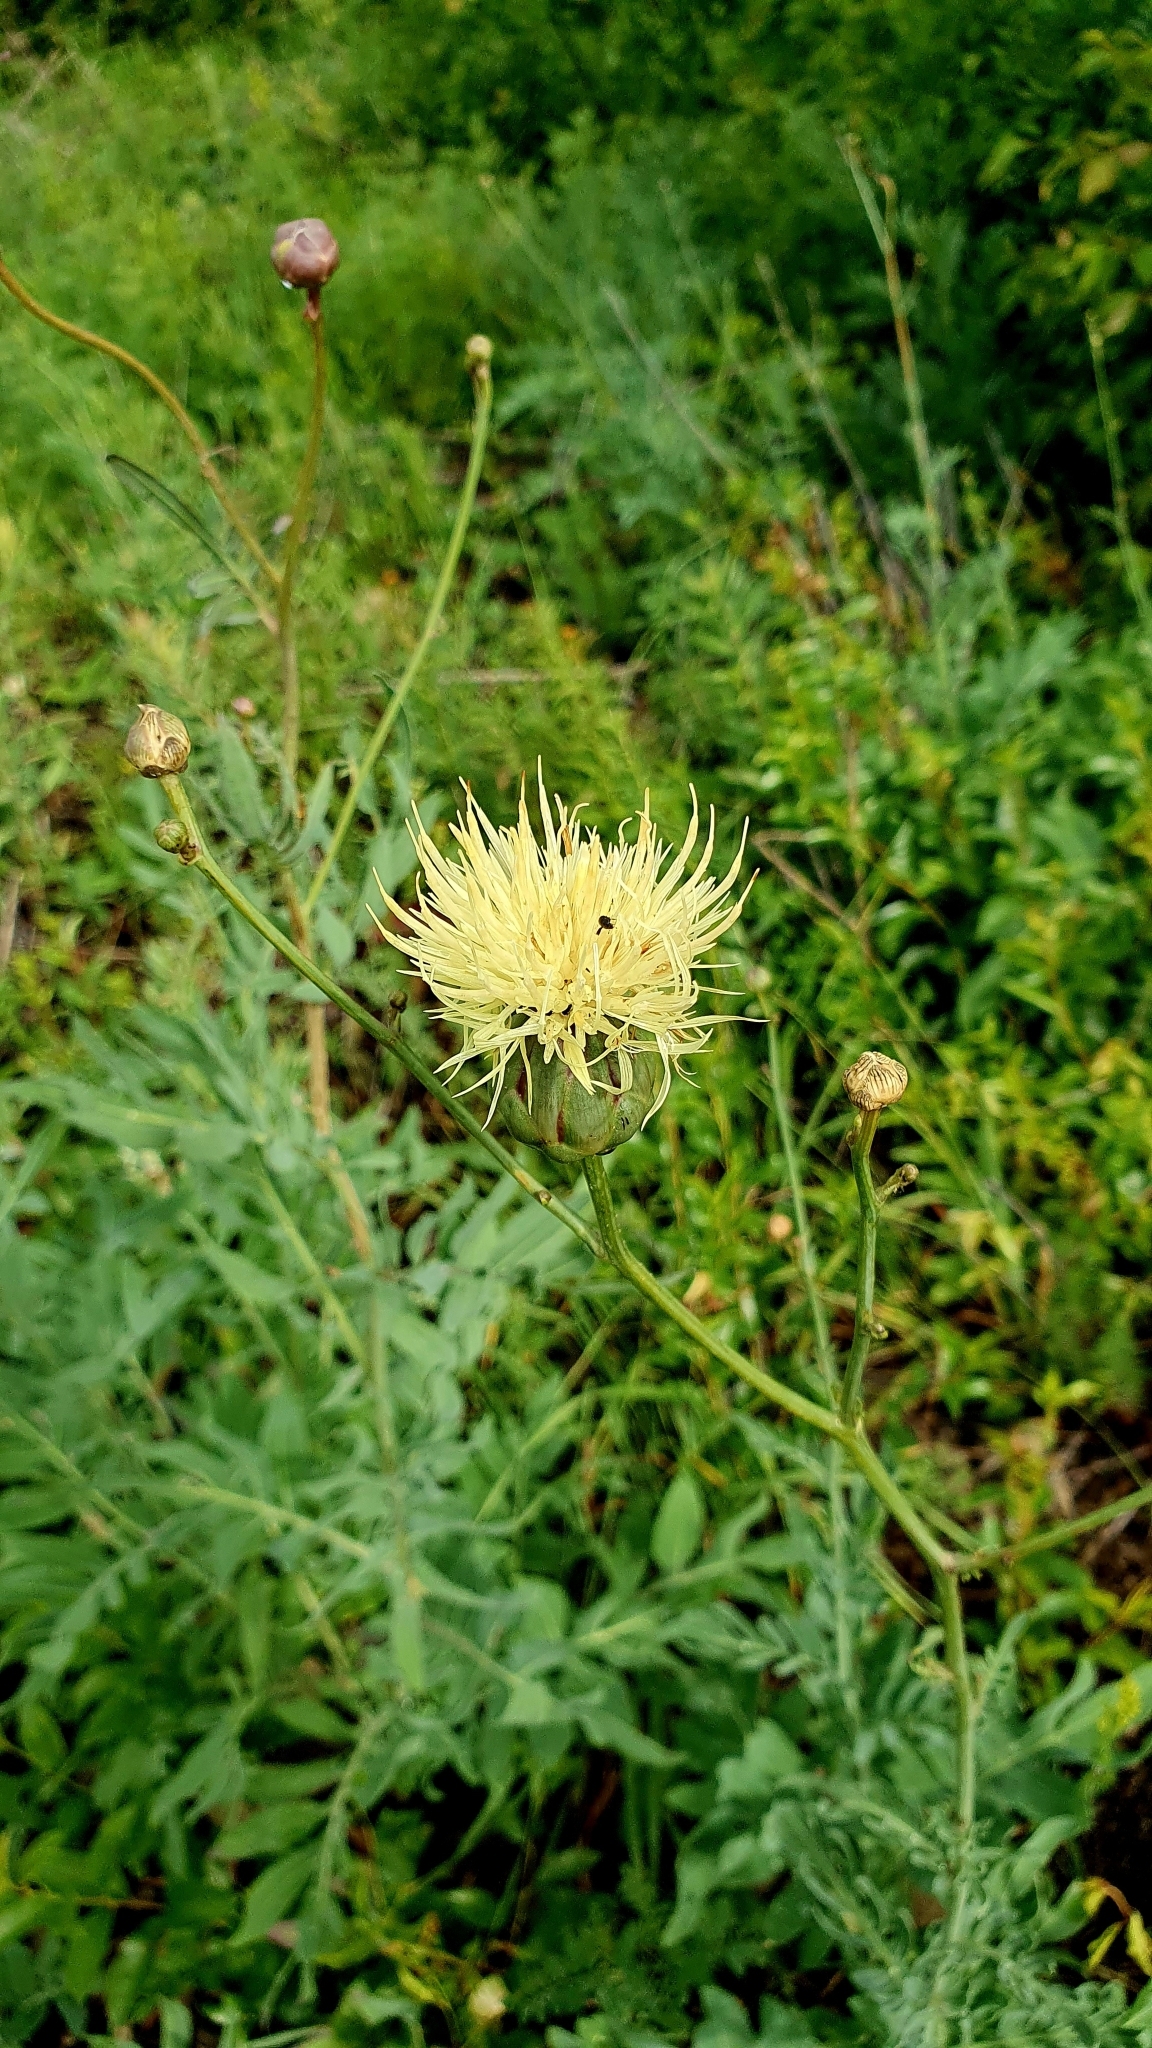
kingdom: Plantae
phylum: Tracheophyta
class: Magnoliopsida
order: Asterales
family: Asteraceae
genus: Rhaponticoides
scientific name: Rhaponticoides ruthenica
